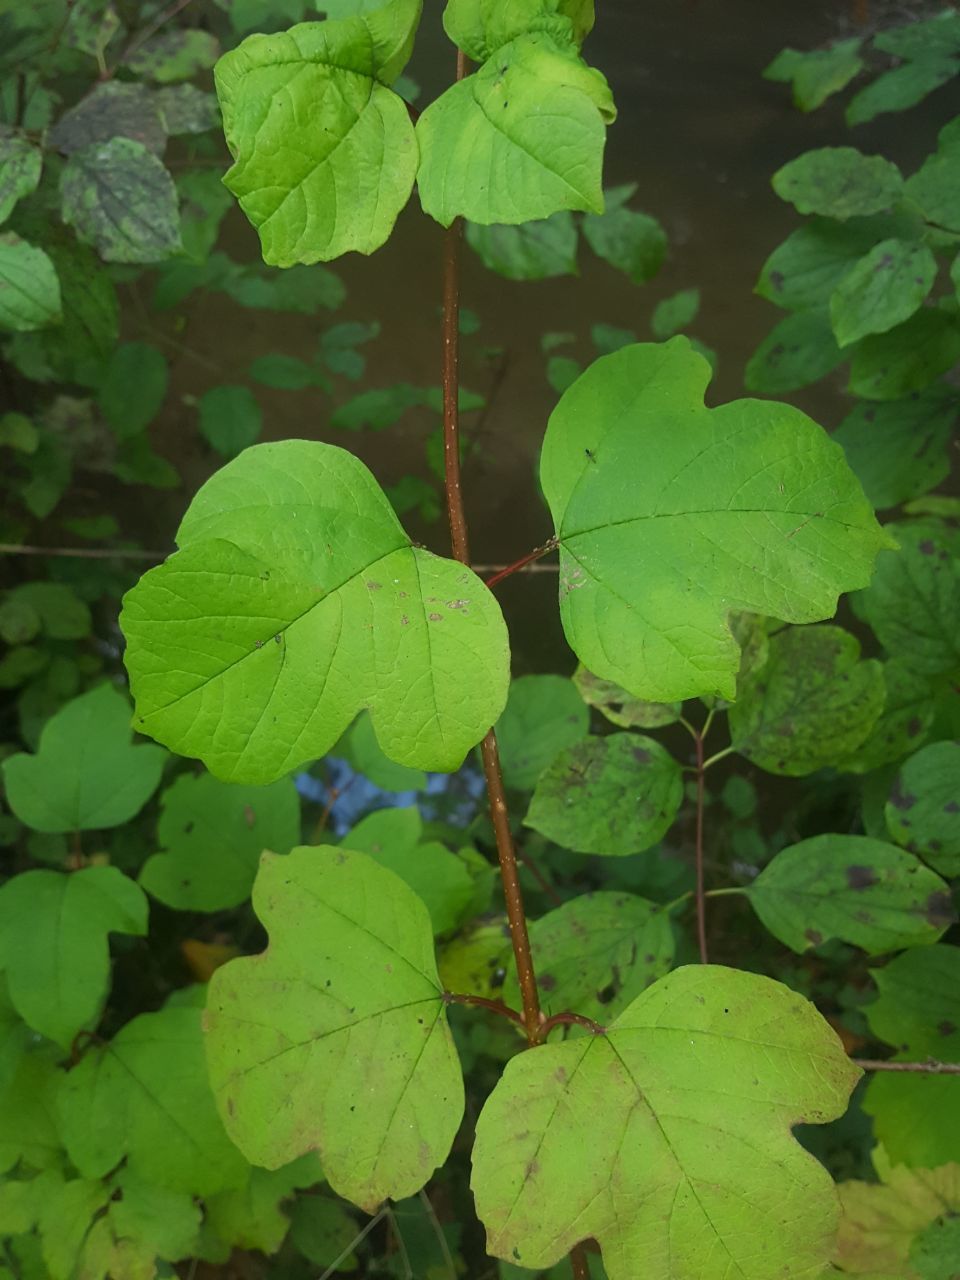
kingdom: Plantae
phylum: Tracheophyta
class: Magnoliopsida
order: Dipsacales
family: Viburnaceae
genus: Viburnum
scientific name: Viburnum opulus
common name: Guelder-rose
